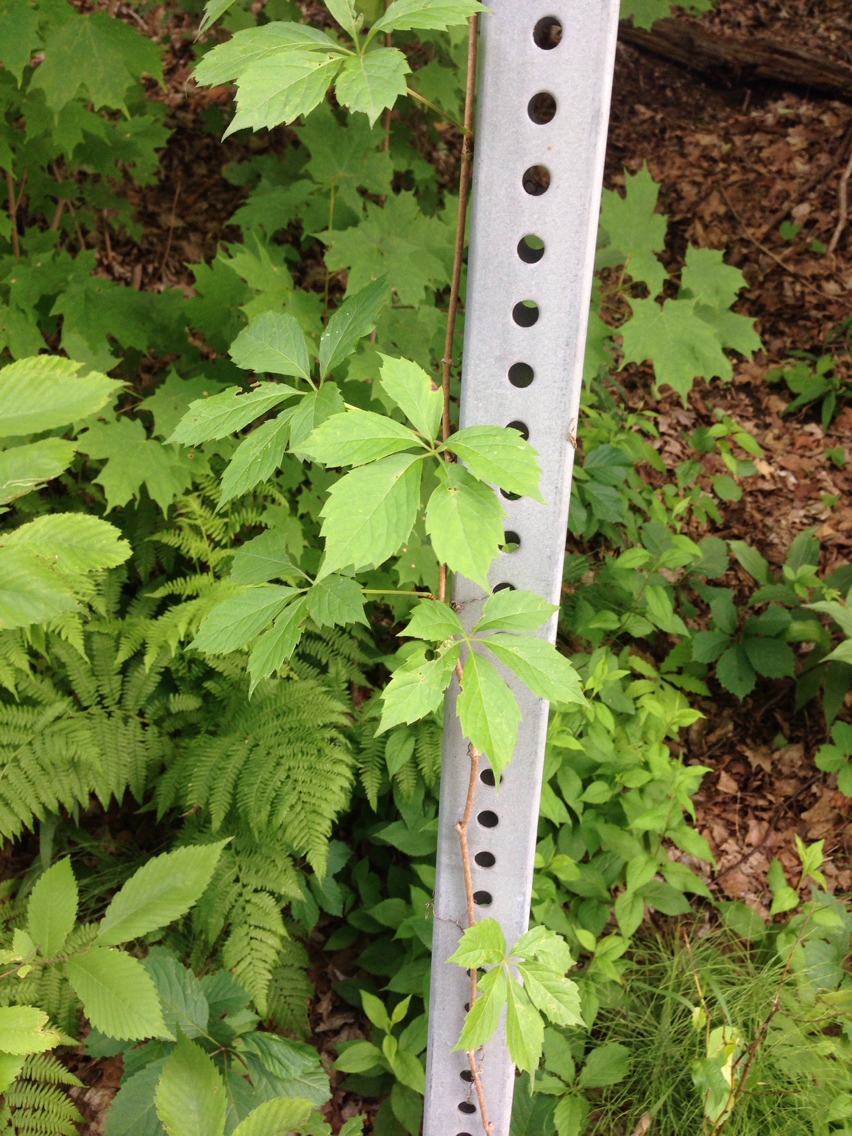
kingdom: Plantae
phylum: Tracheophyta
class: Magnoliopsida
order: Vitales
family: Vitaceae
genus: Parthenocissus
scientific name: Parthenocissus quinquefolia
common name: Virginia-creeper
